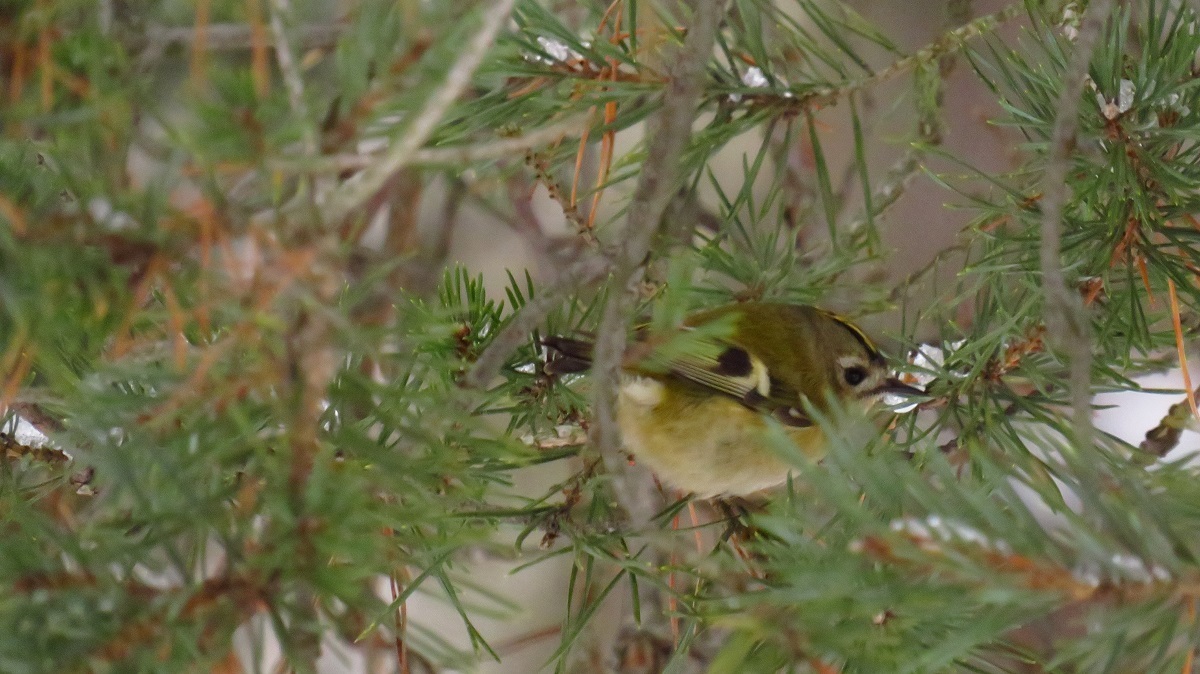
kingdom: Animalia
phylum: Chordata
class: Aves
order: Passeriformes
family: Regulidae
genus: Regulus
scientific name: Regulus regulus
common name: Goldcrest
